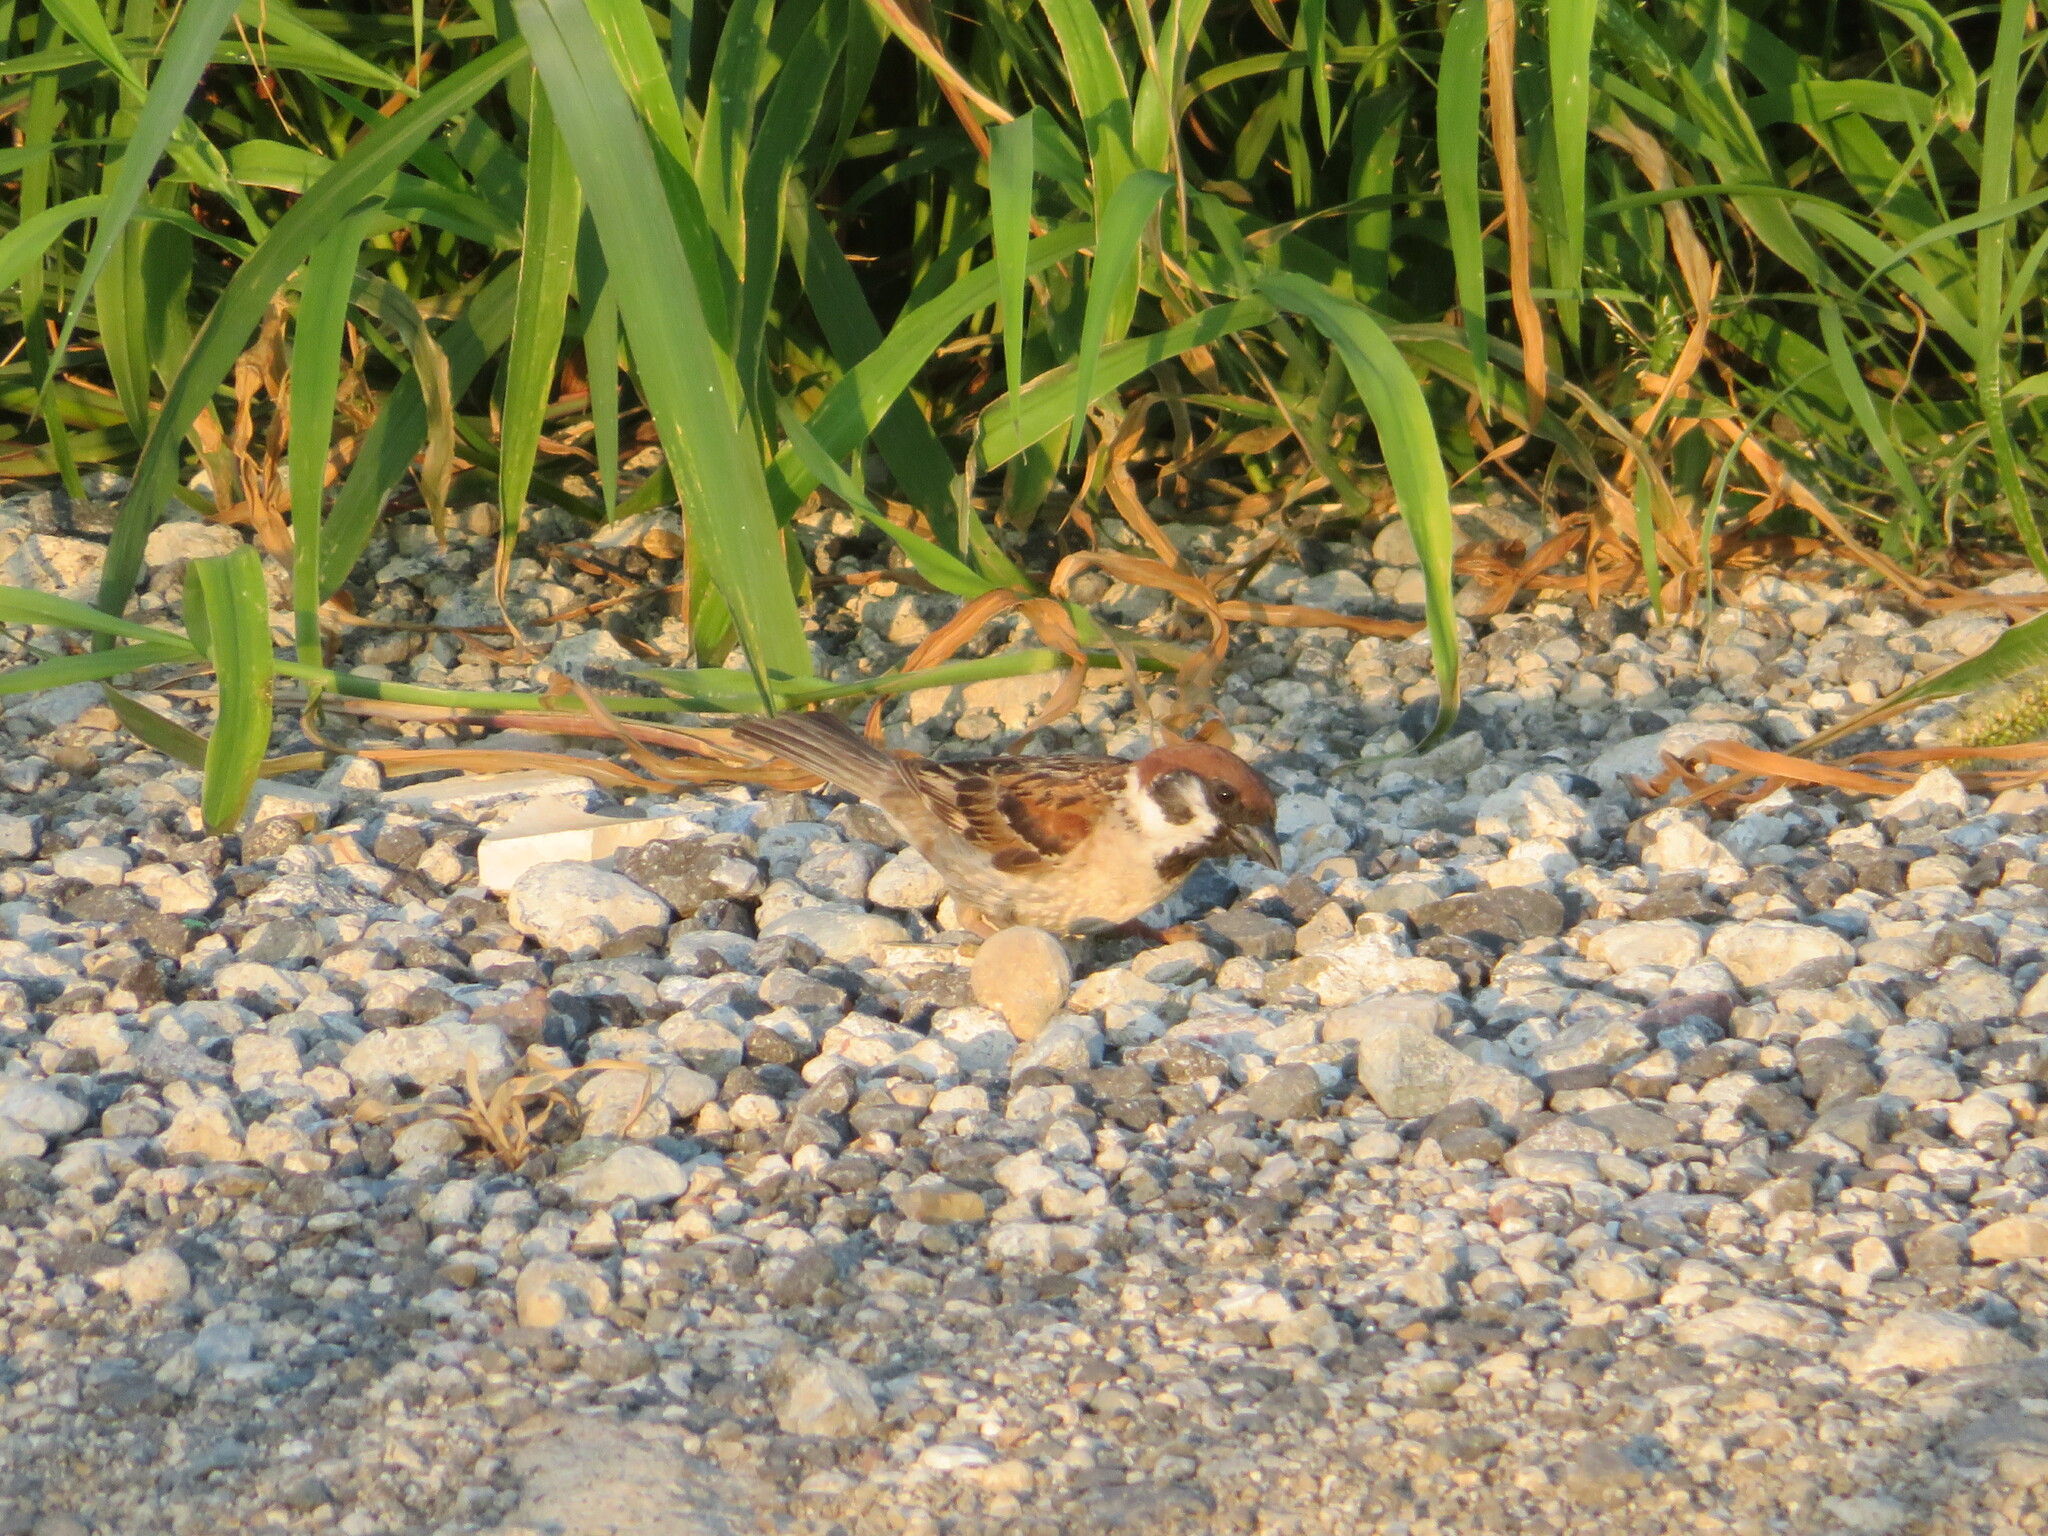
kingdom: Animalia
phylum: Chordata
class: Aves
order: Passeriformes
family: Passeridae
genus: Passer
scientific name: Passer montanus
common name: Eurasian tree sparrow
